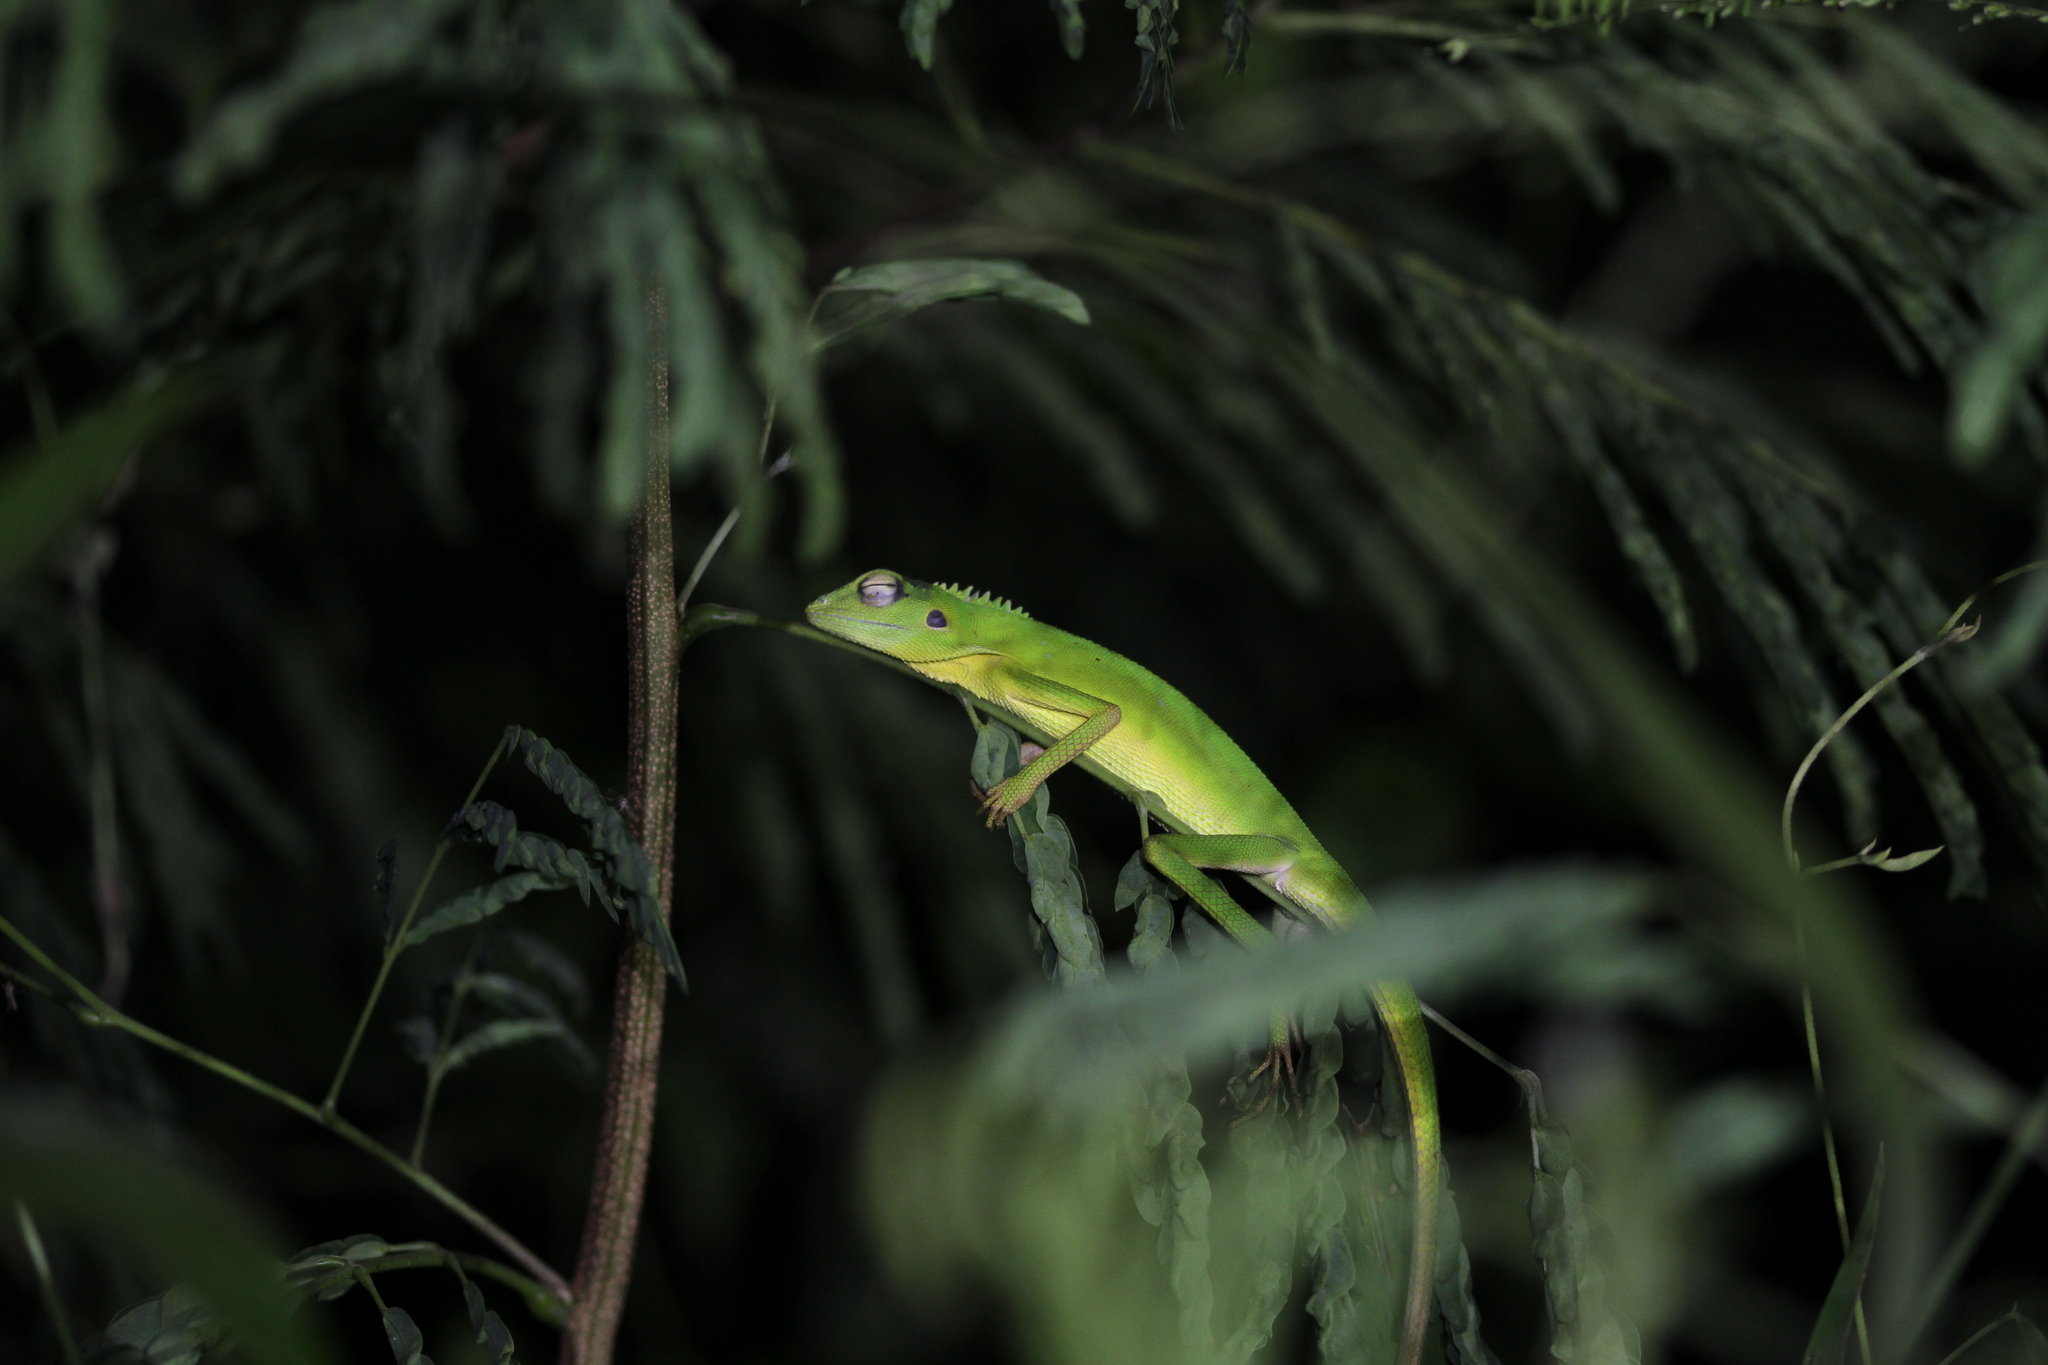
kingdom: Animalia
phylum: Chordata
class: Squamata
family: Agamidae
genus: Bronchocela
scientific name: Bronchocela cristatella
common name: Green crested lizard
